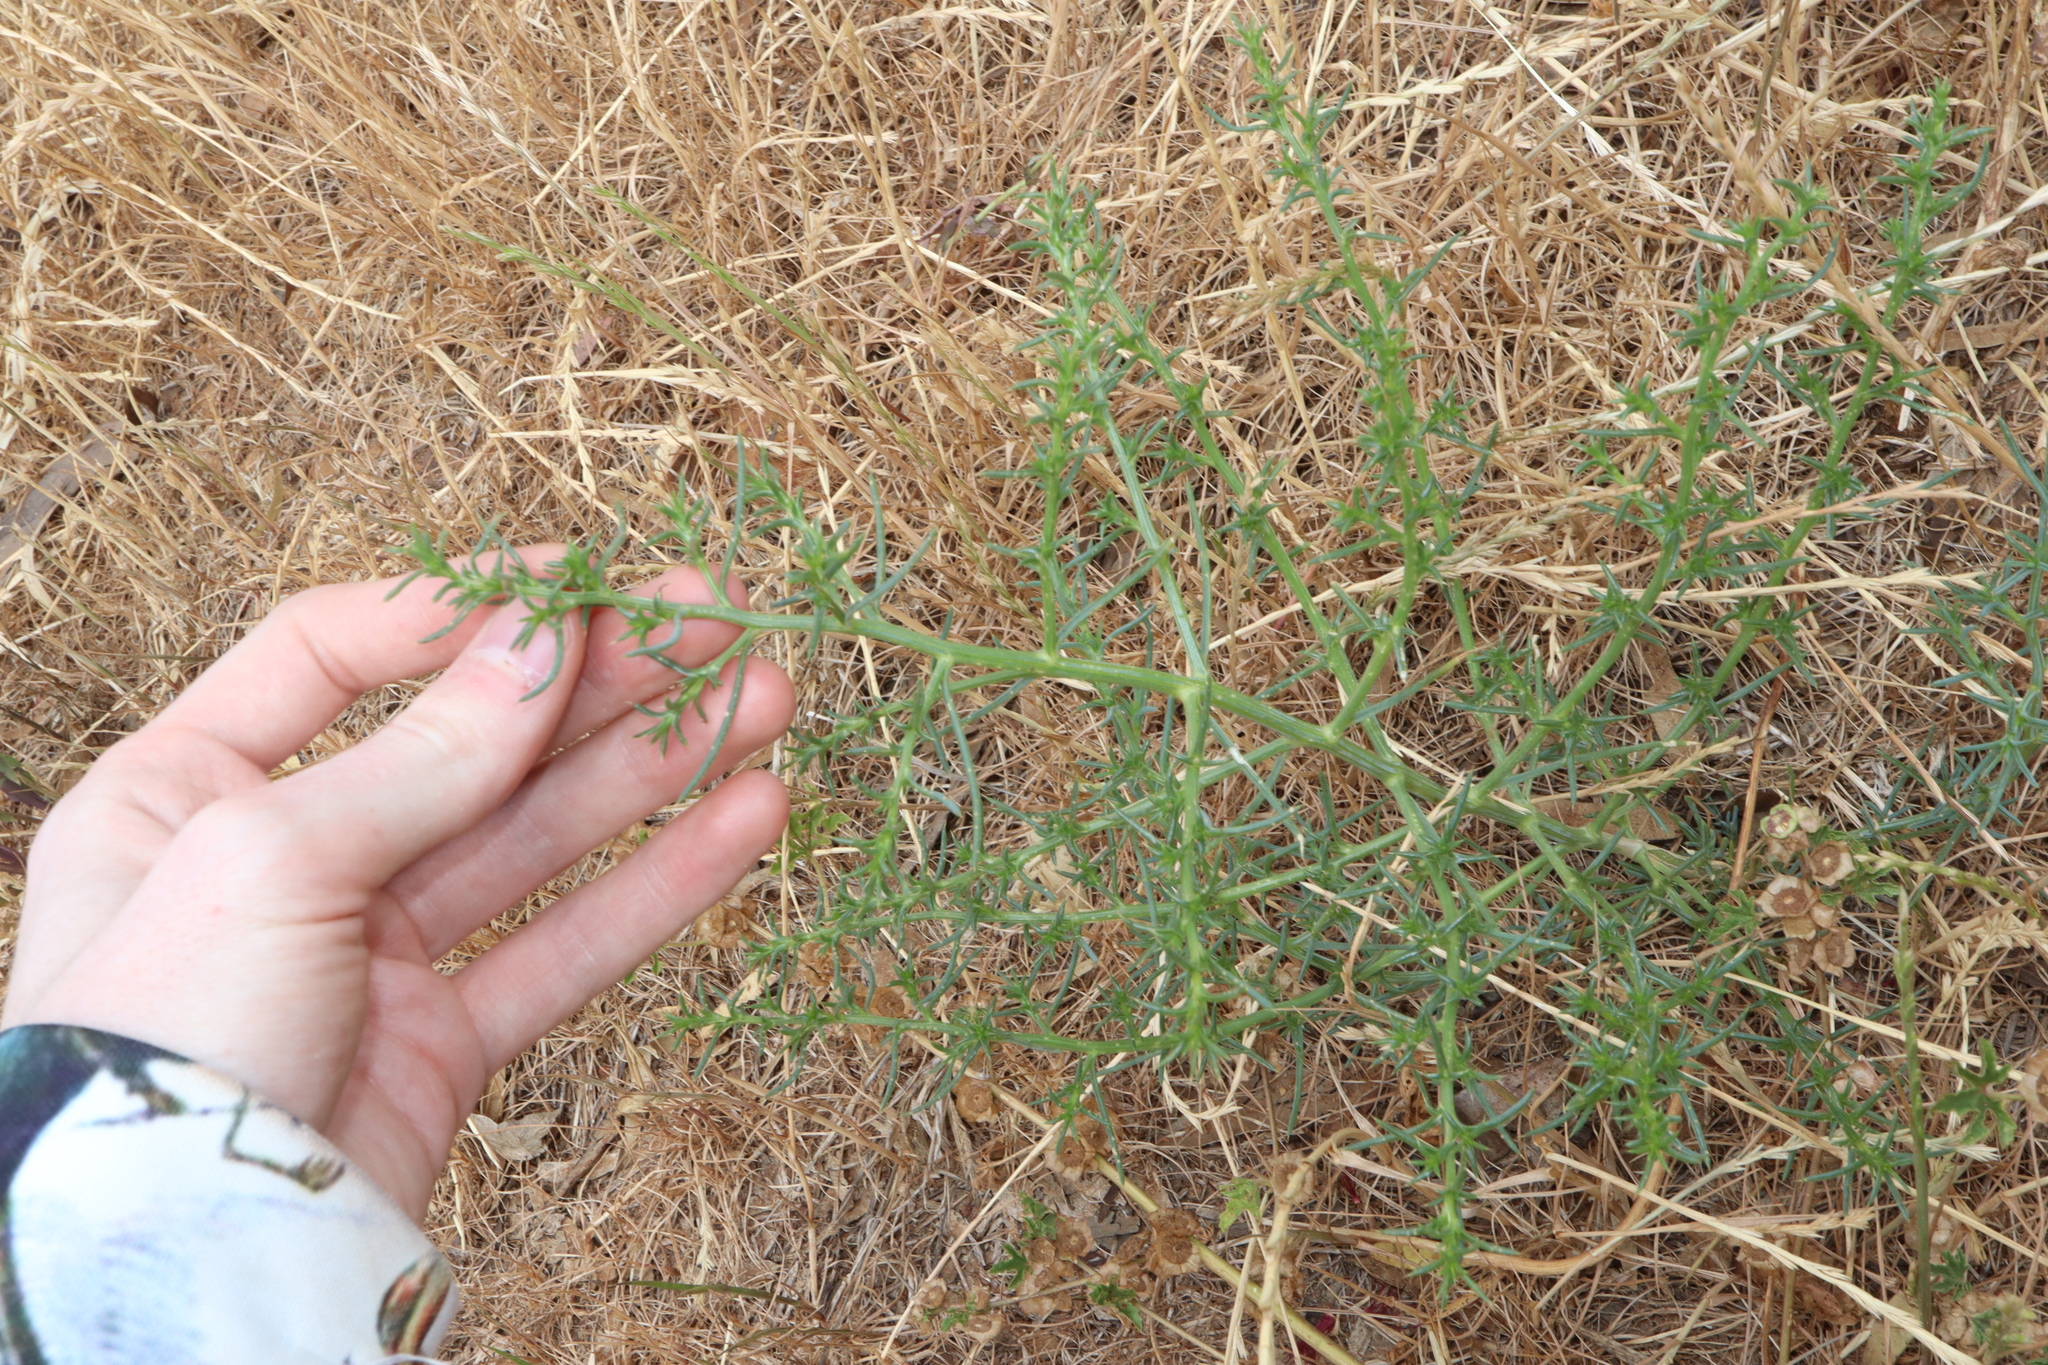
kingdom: Plantae
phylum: Tracheophyta
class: Magnoliopsida
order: Caryophyllales
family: Amaranthaceae
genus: Salsola
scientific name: Salsola australis
